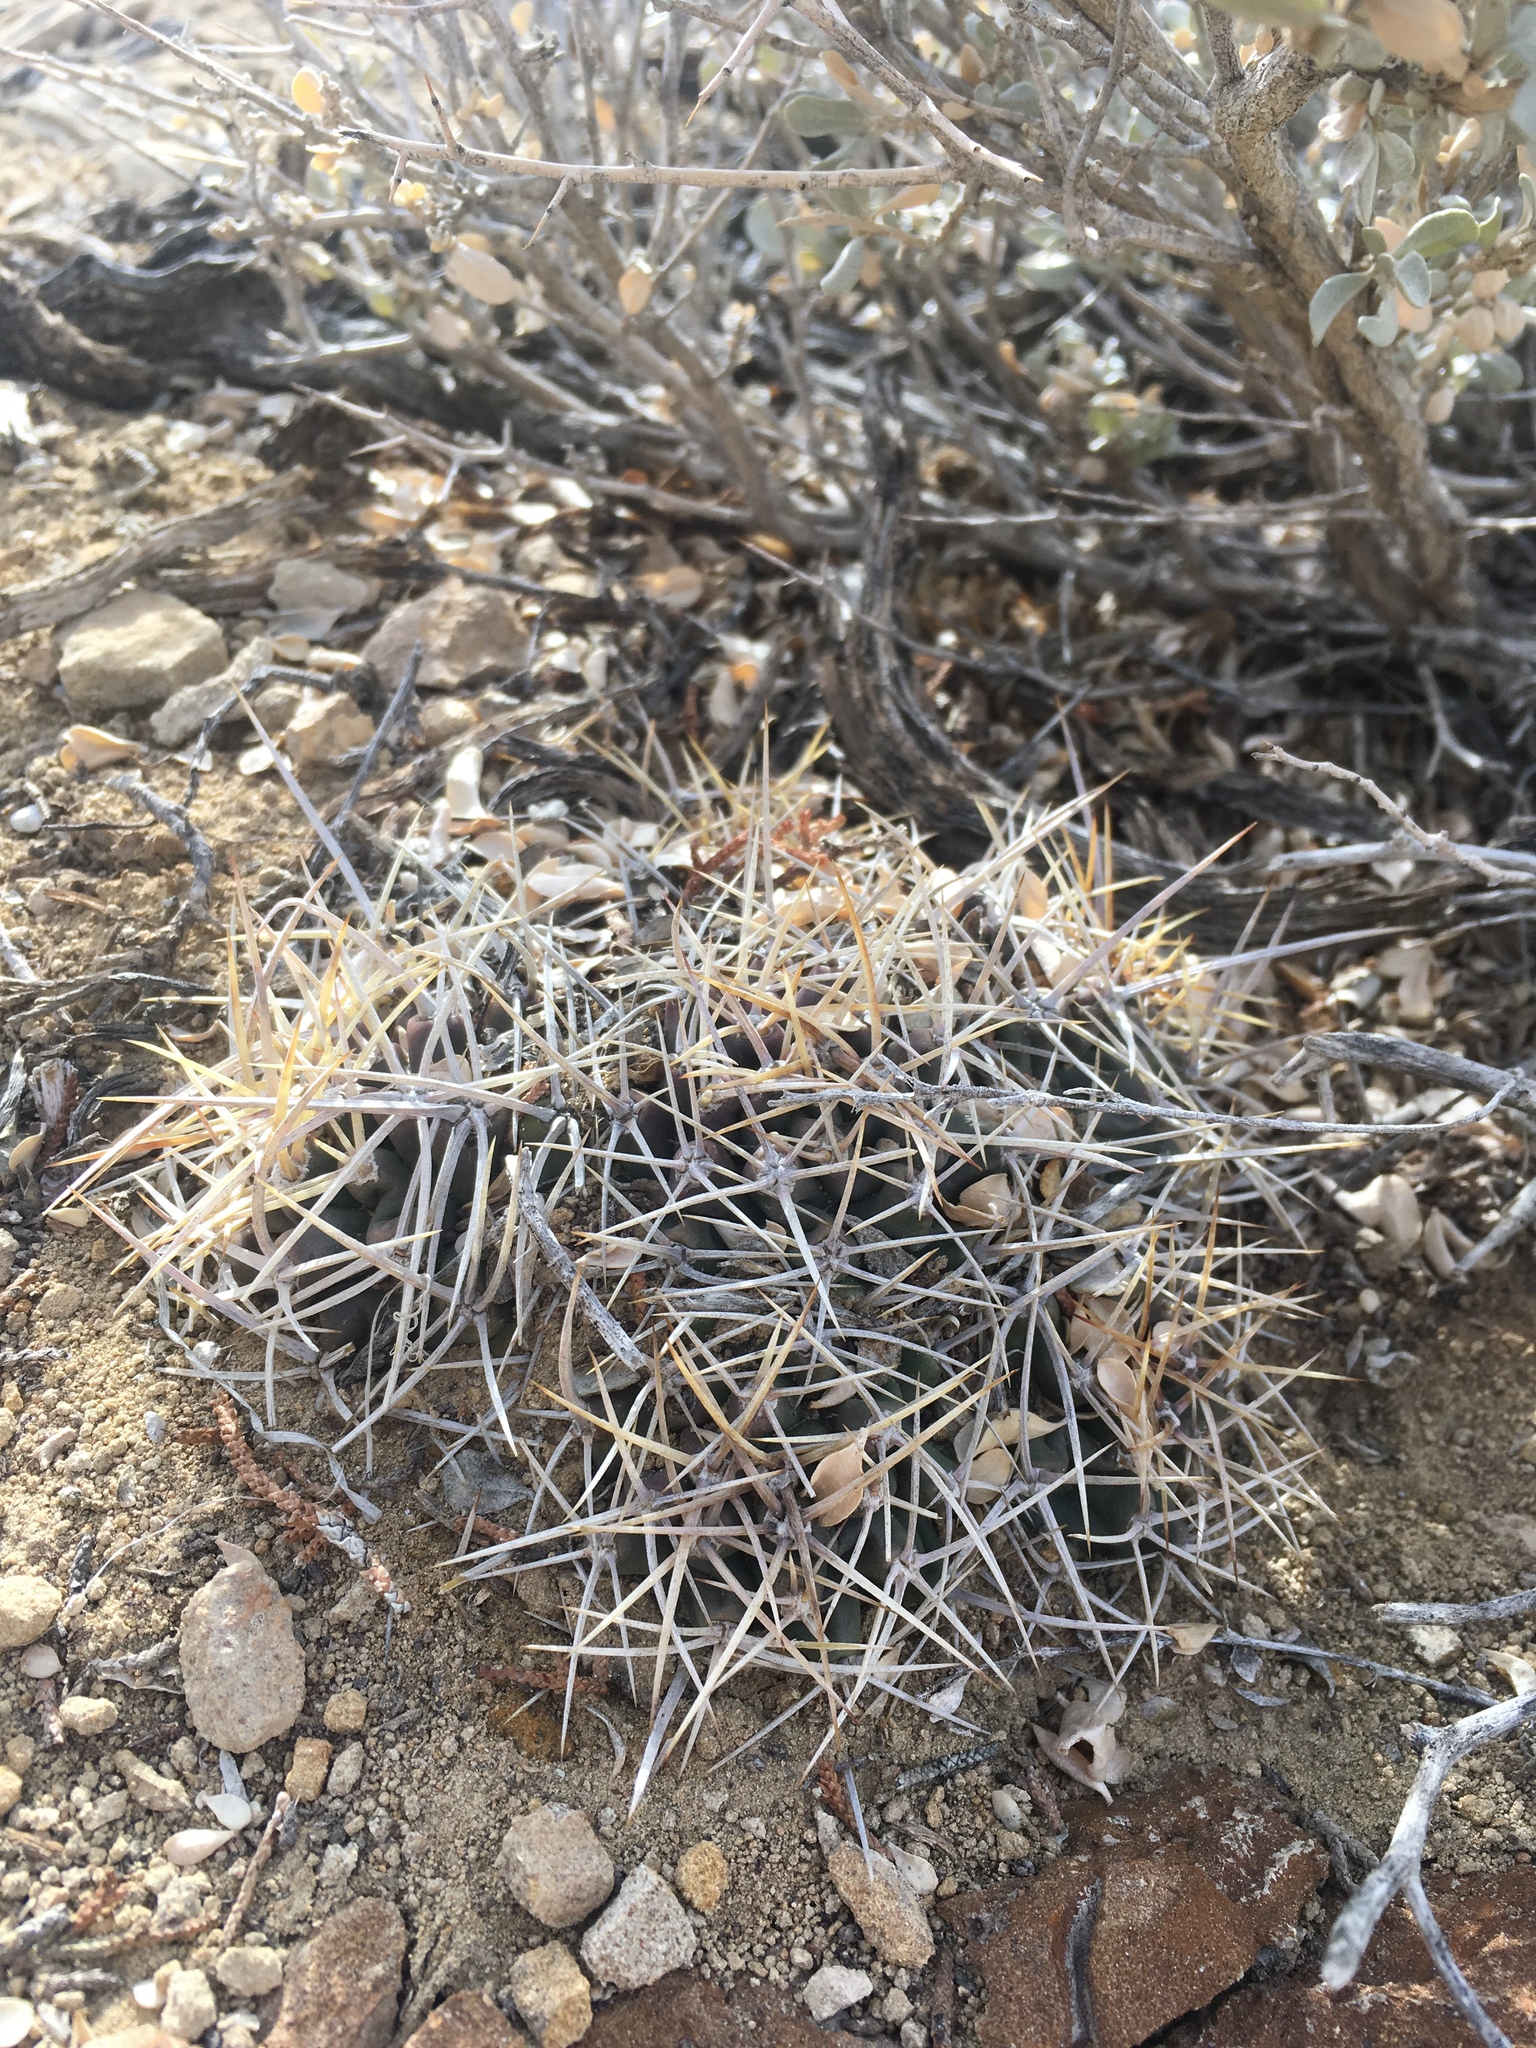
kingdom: Plantae
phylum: Tracheophyta
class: Magnoliopsida
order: Caryophyllales
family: Cactaceae
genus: Echinocereus
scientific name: Echinocereus triglochidiatus
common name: Claretcup hedgehog
